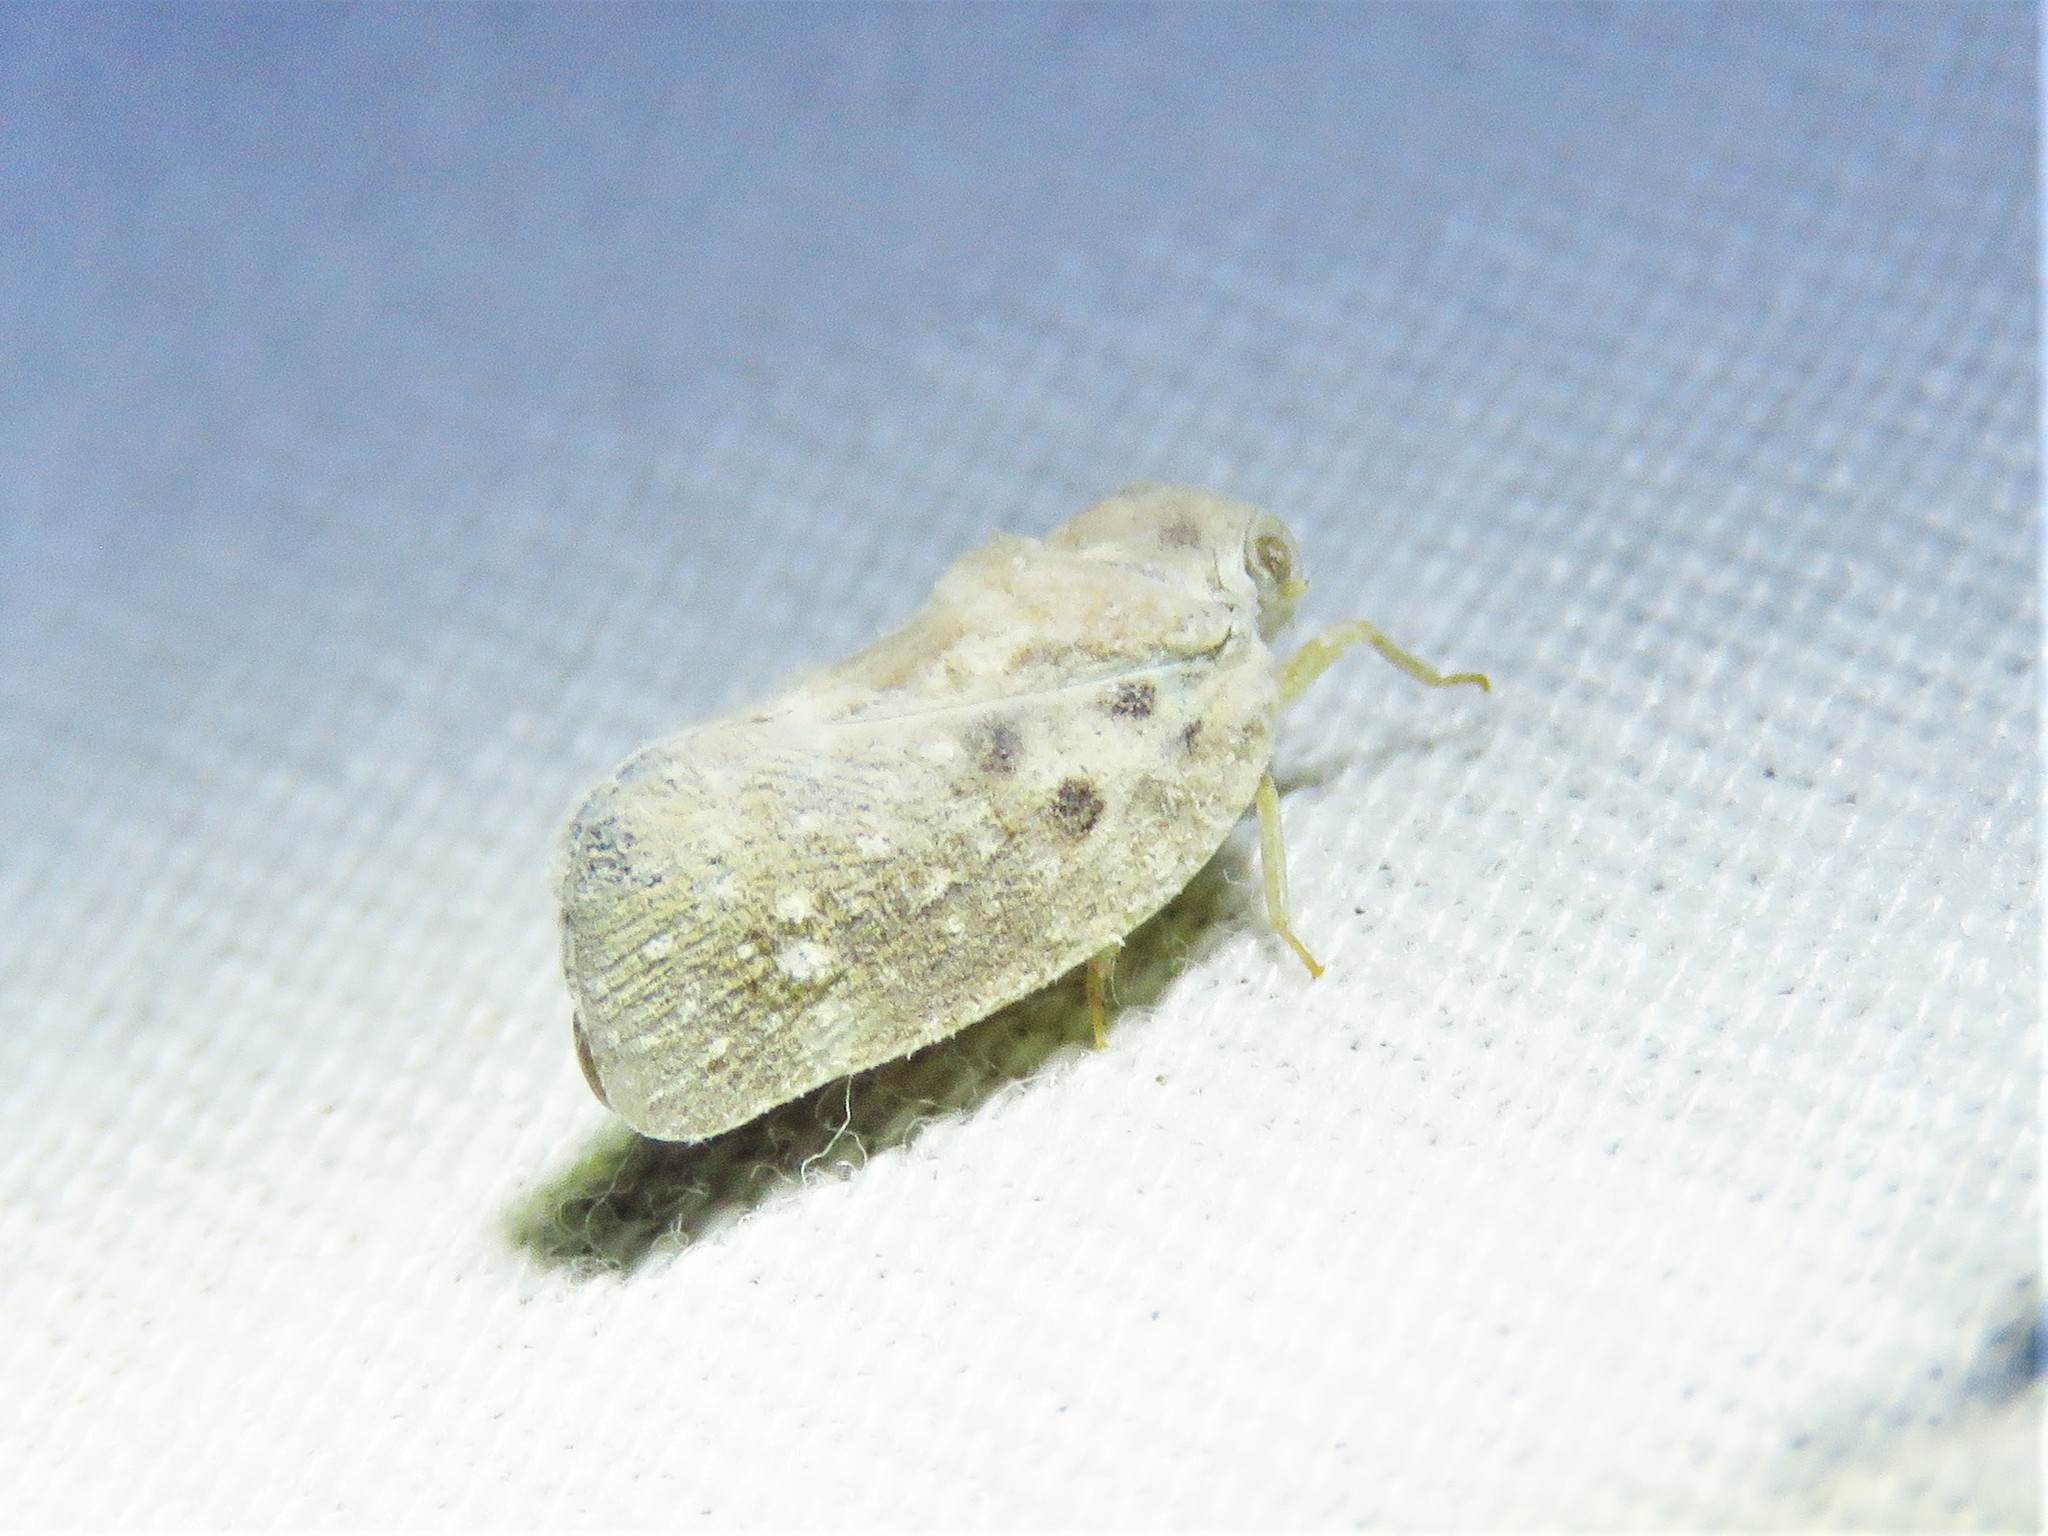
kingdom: Animalia
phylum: Arthropoda
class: Insecta
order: Hemiptera
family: Flatidae
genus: Metcalfa
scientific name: Metcalfa pruinosa
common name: Citrus flatid planthopper
